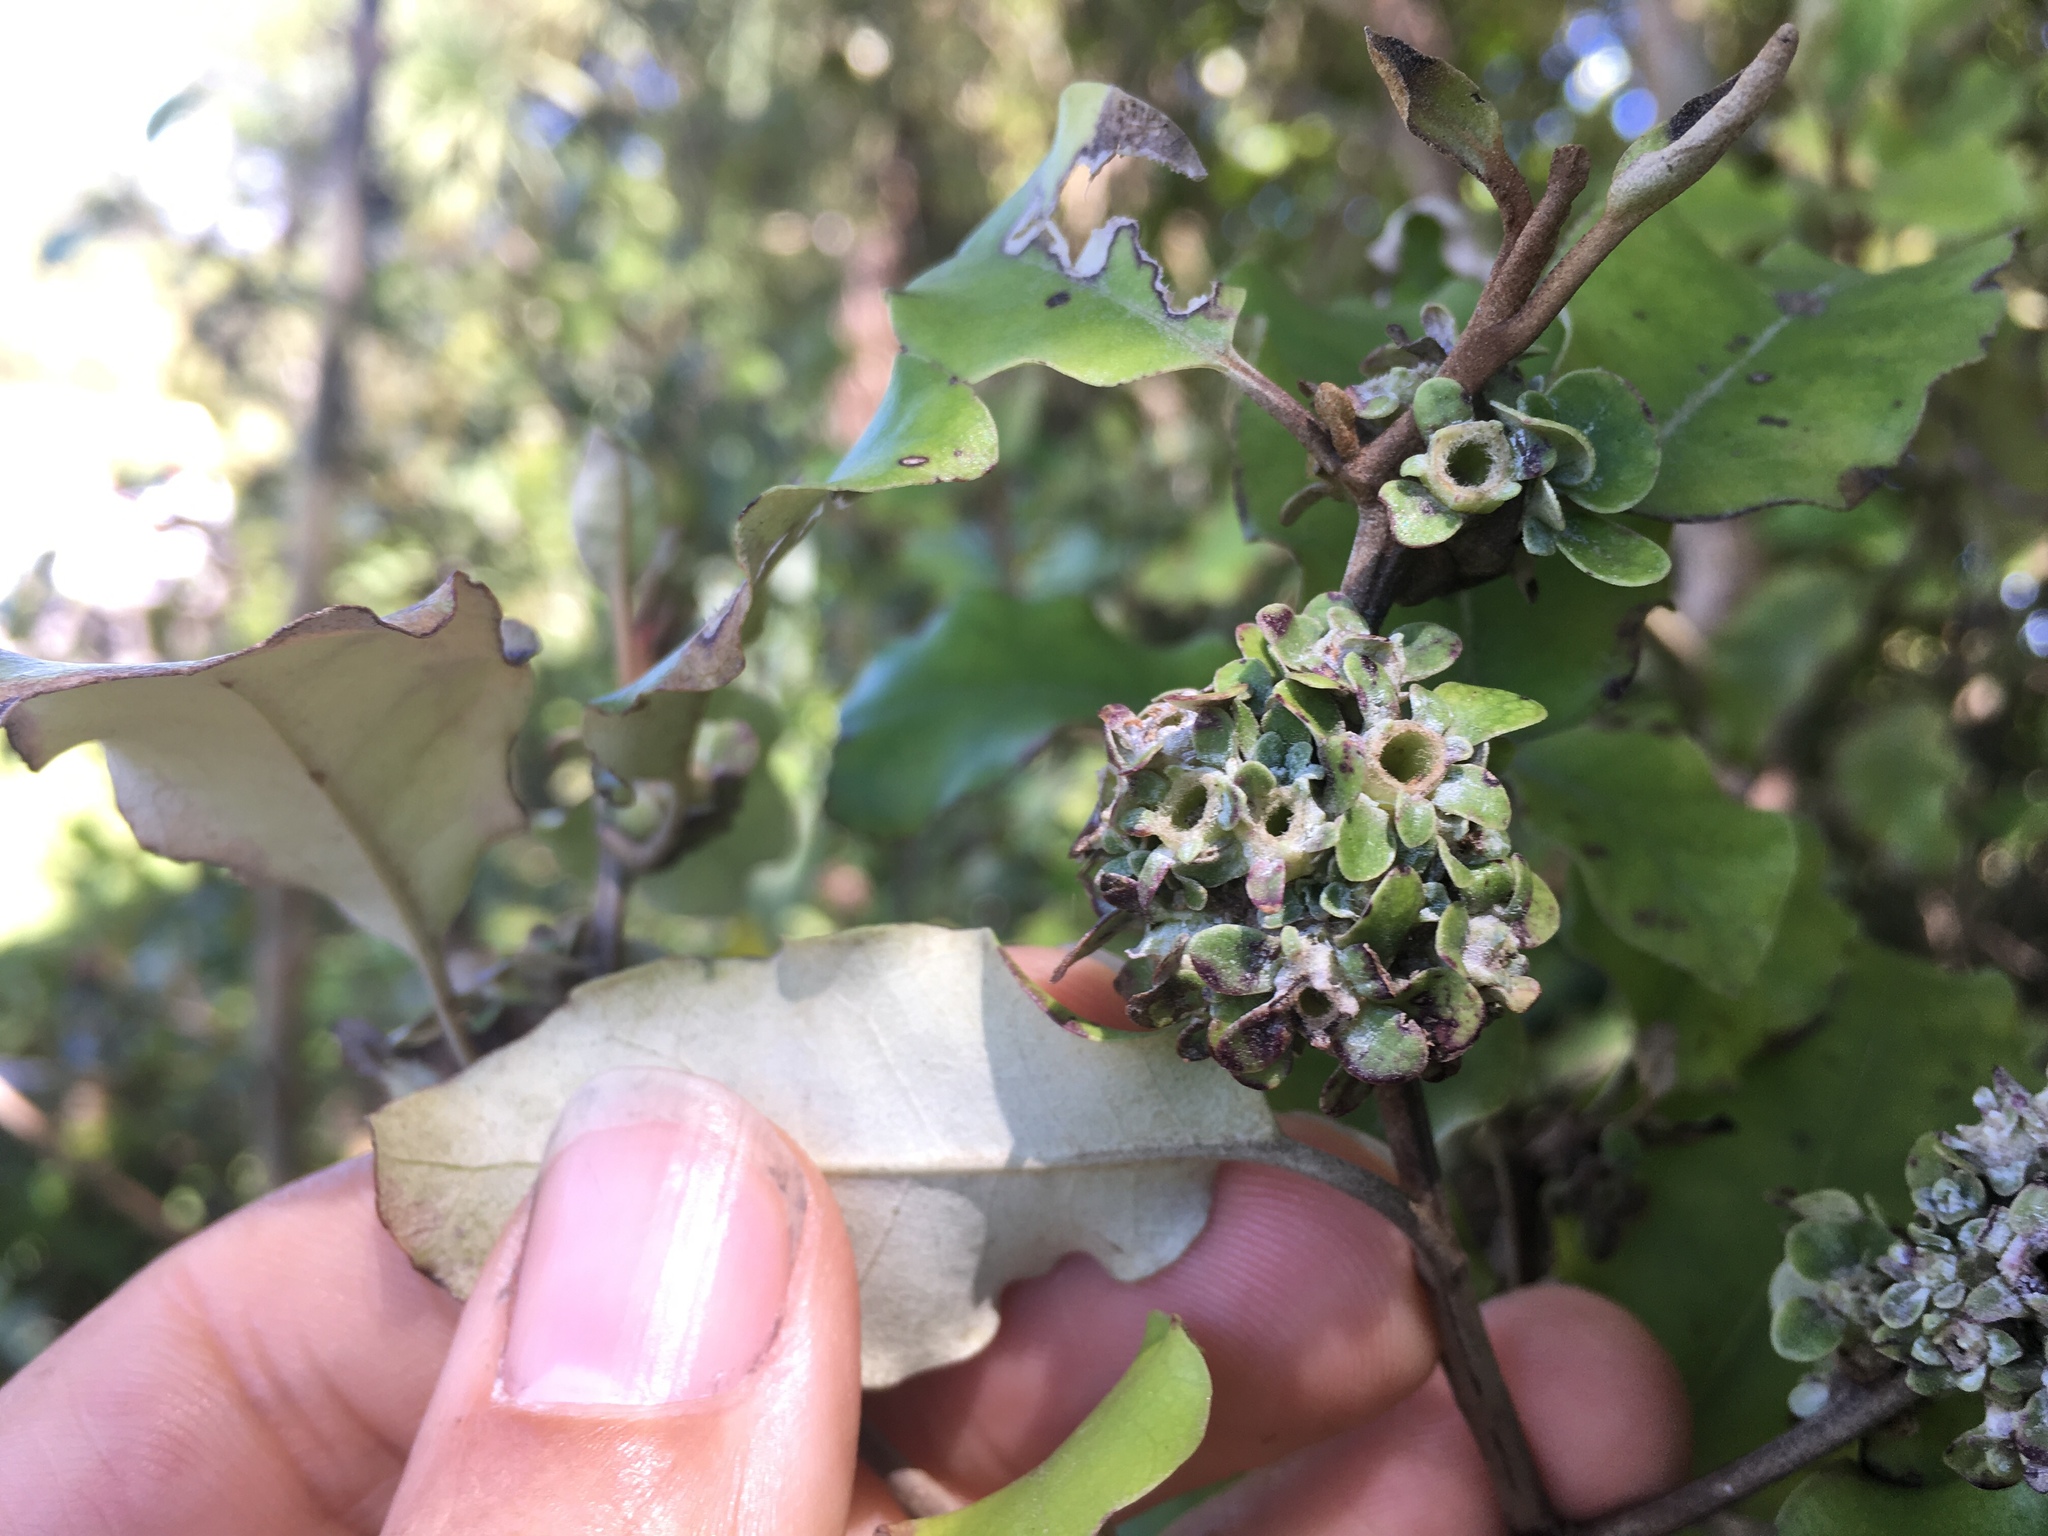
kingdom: Animalia
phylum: Arthropoda
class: Insecta
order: Diptera
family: Cecidomyiidae
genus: Oligotrophus
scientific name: Oligotrophus
